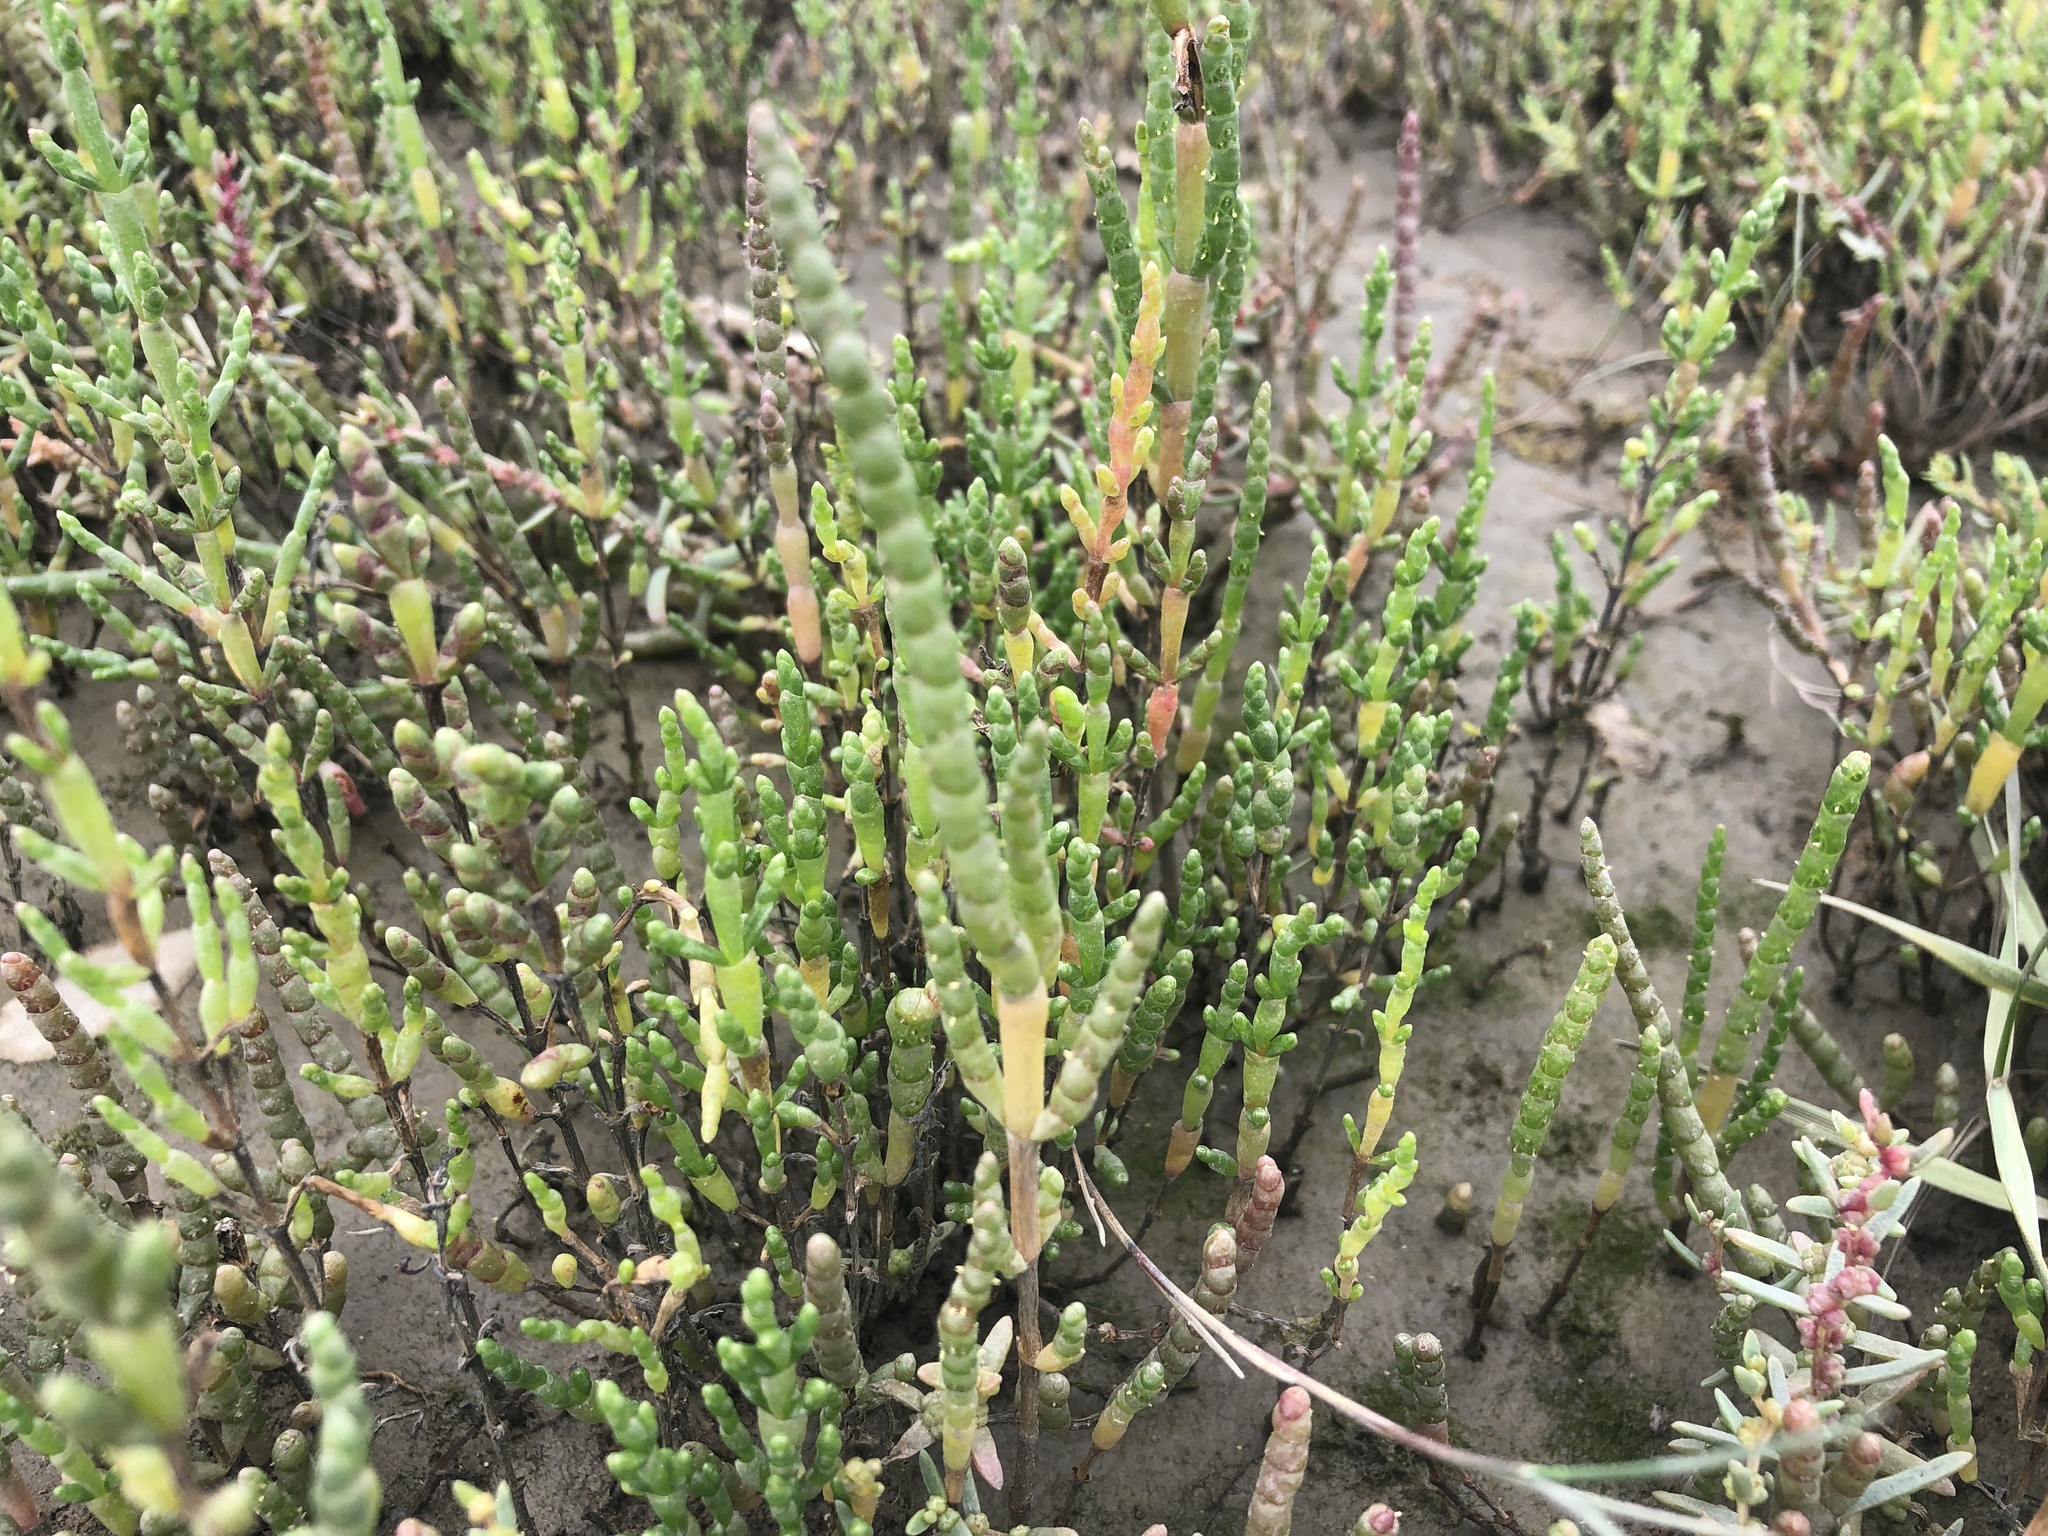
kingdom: Plantae
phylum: Tracheophyta
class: Magnoliopsida
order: Caryophyllales
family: Amaranthaceae
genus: Salicornia
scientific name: Salicornia europaea
